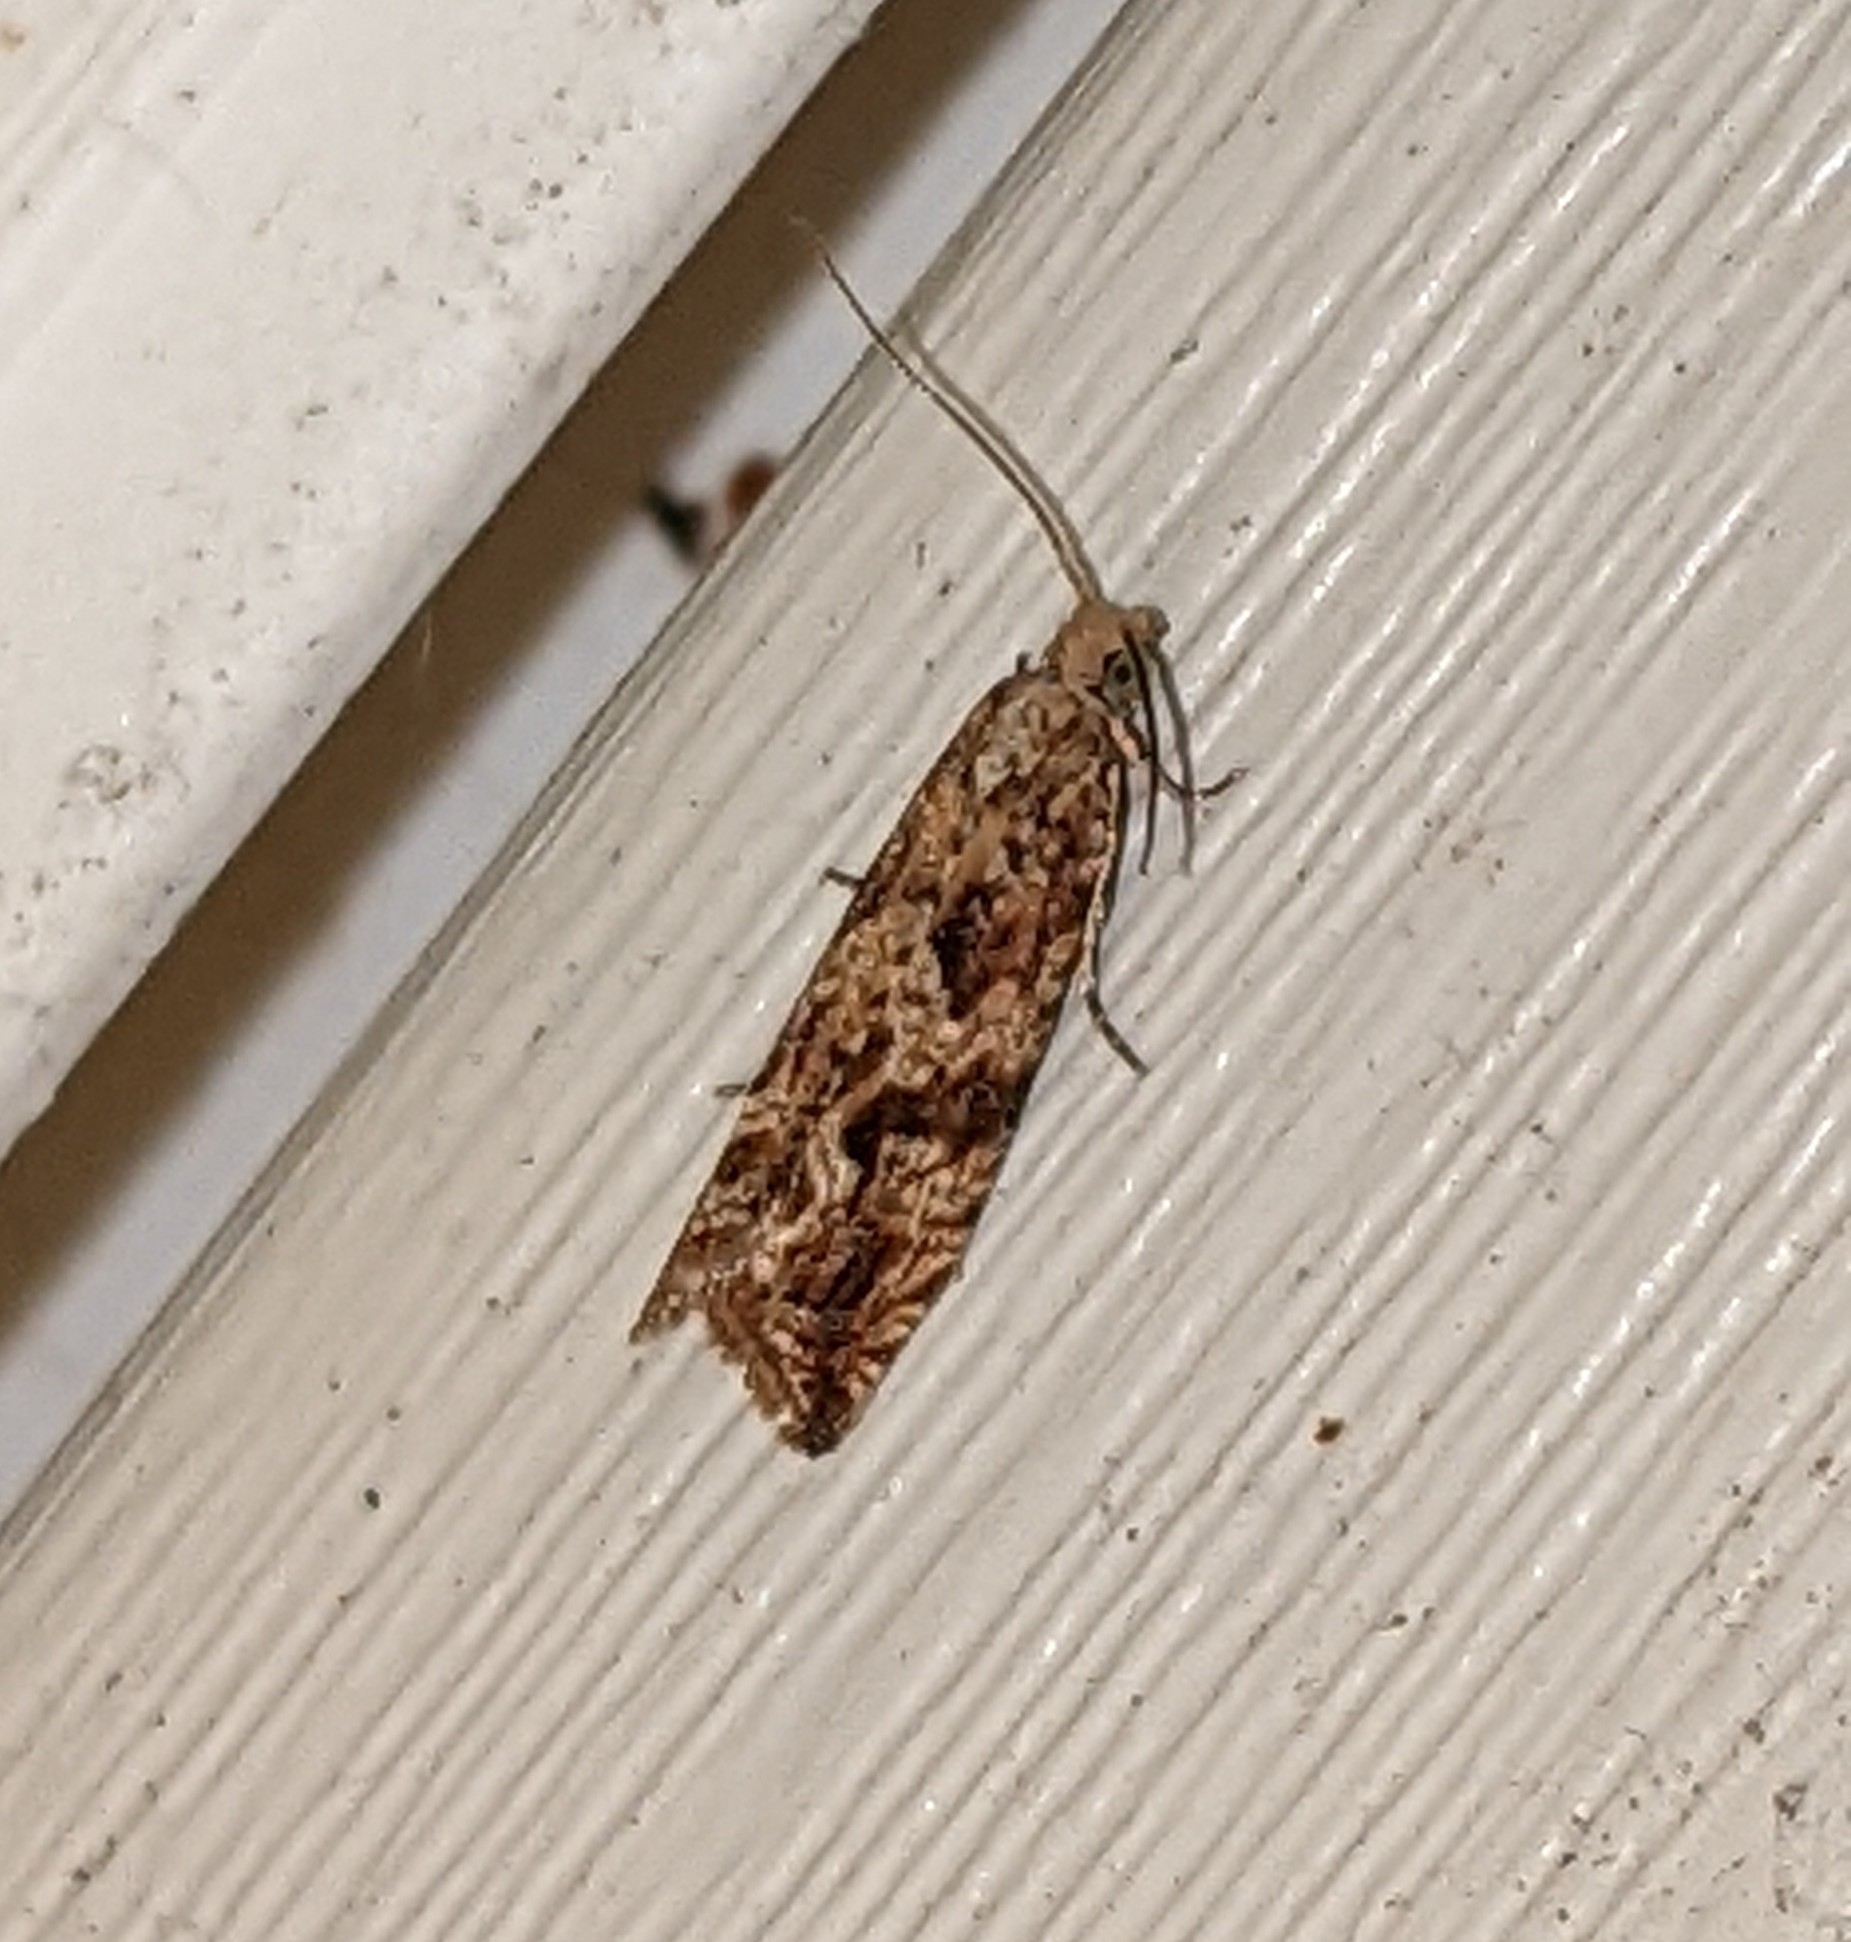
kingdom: Animalia
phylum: Arthropoda
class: Insecta
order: Lepidoptera
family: Tortricidae
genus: Bactra
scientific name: Bactra furfurana
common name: Mottled marble
